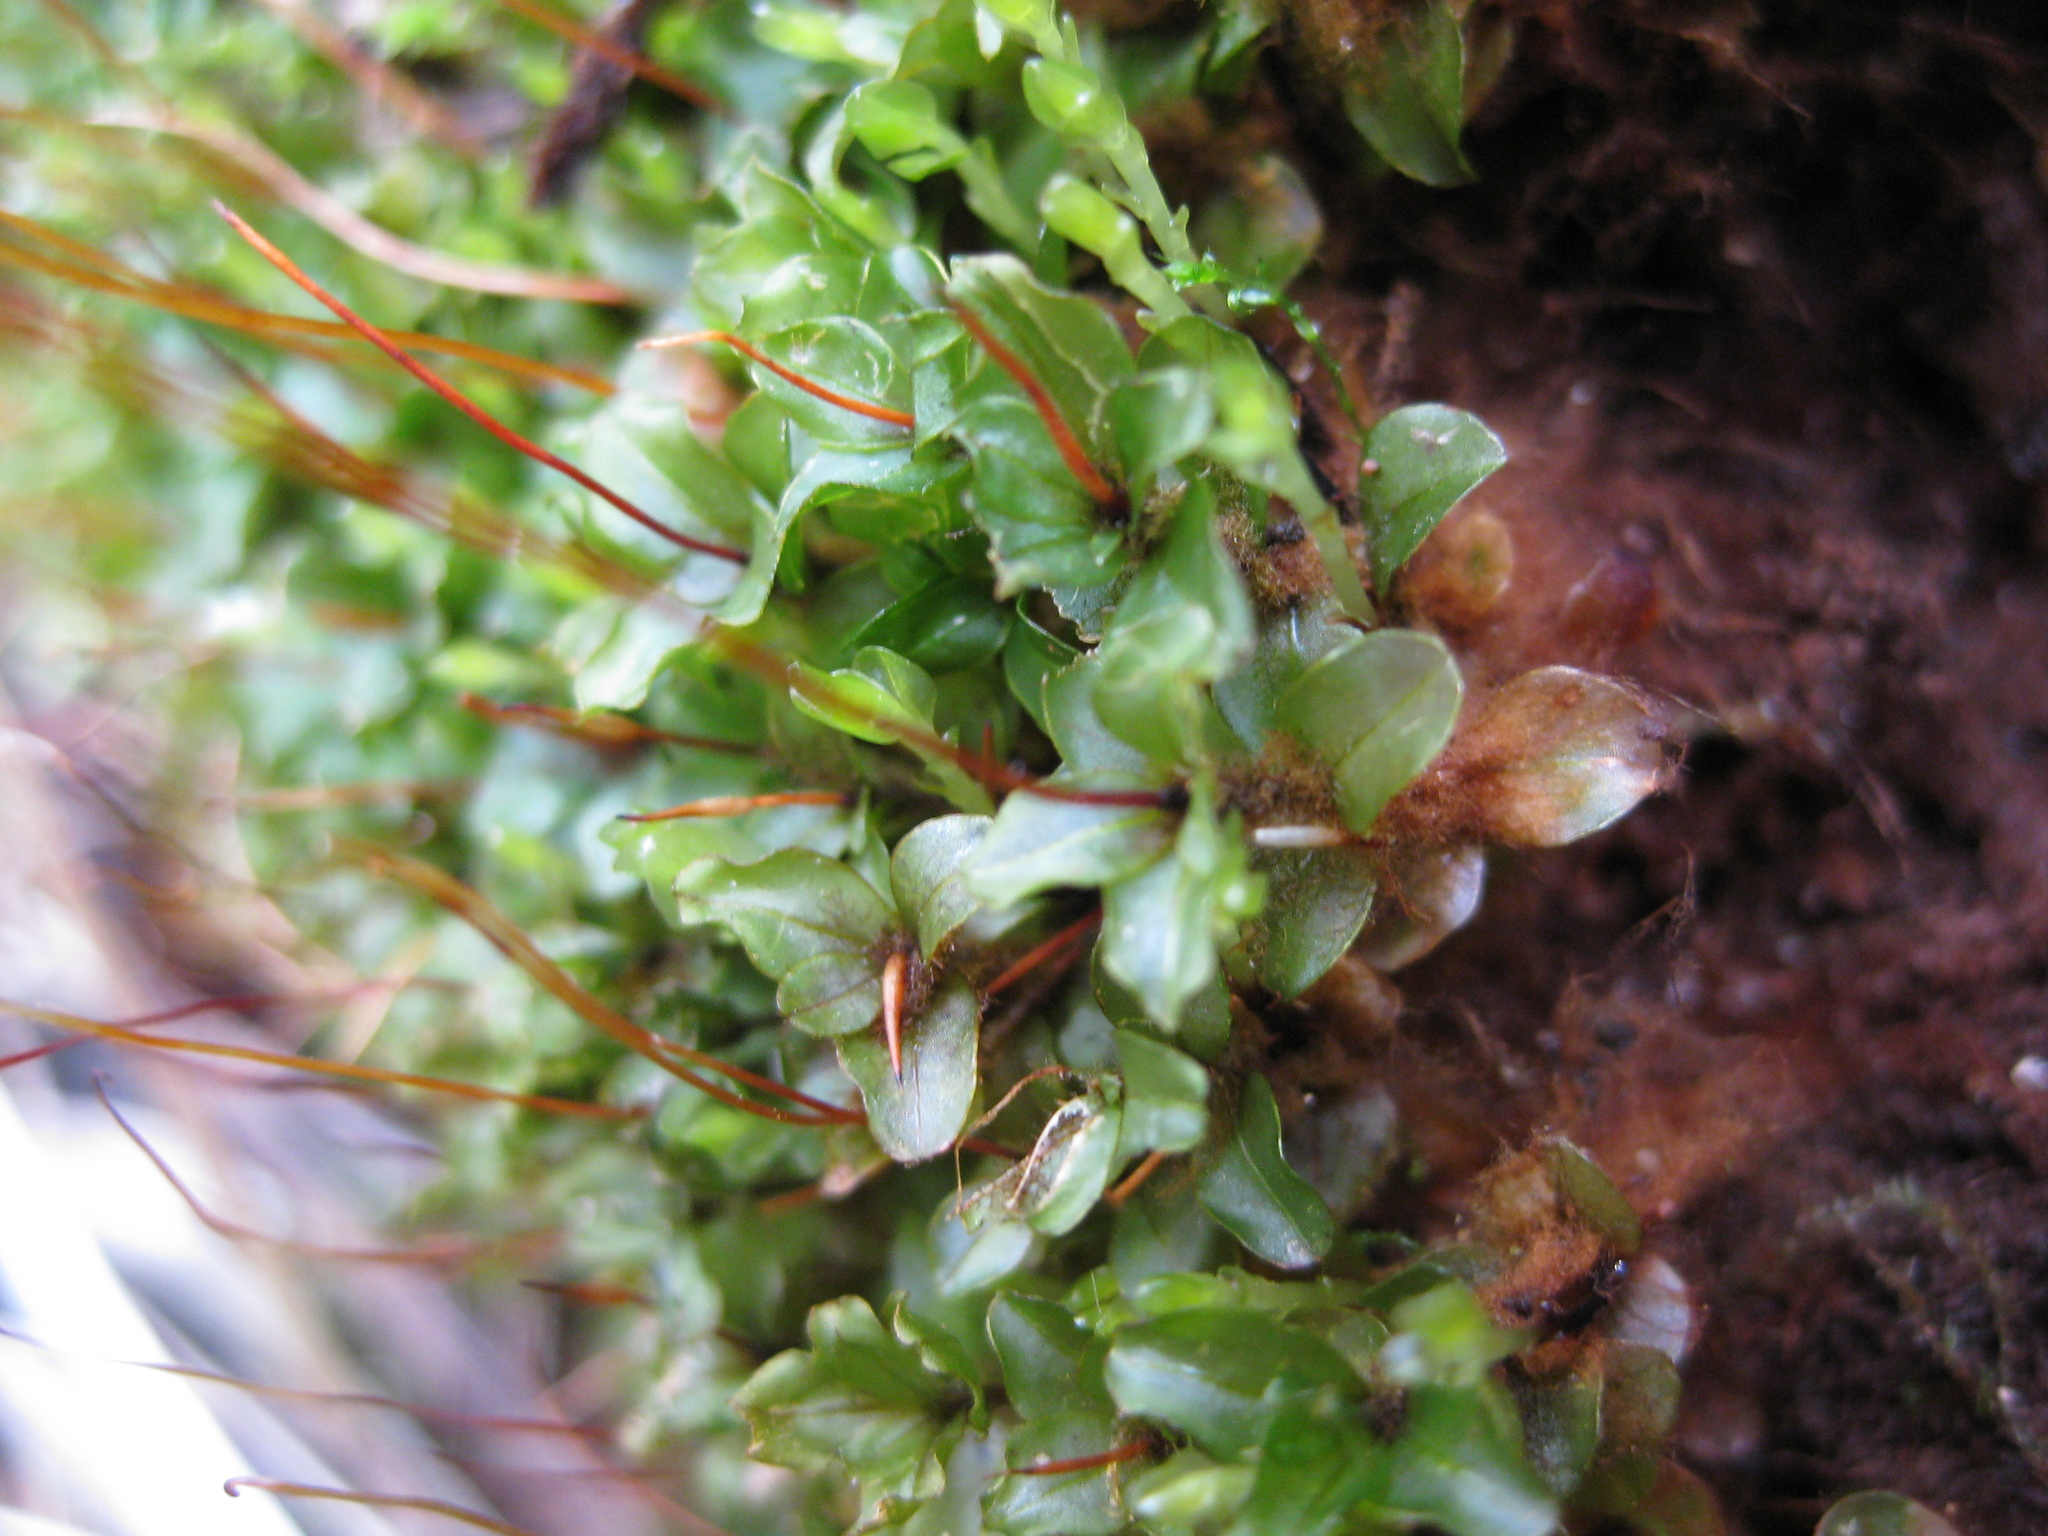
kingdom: Plantae
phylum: Bryophyta
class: Bryopsida
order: Bryales
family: Mniaceae
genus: Rhizomnium
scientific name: Rhizomnium punctatum
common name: Dotted leafy moss
